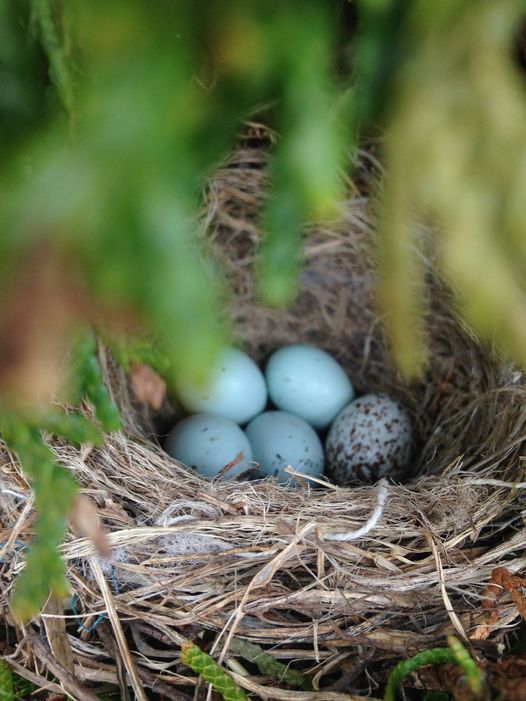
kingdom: Animalia
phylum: Chordata
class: Aves
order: Passeriformes
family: Icteridae
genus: Molothrus
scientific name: Molothrus ater
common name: Brown-headed cowbird
